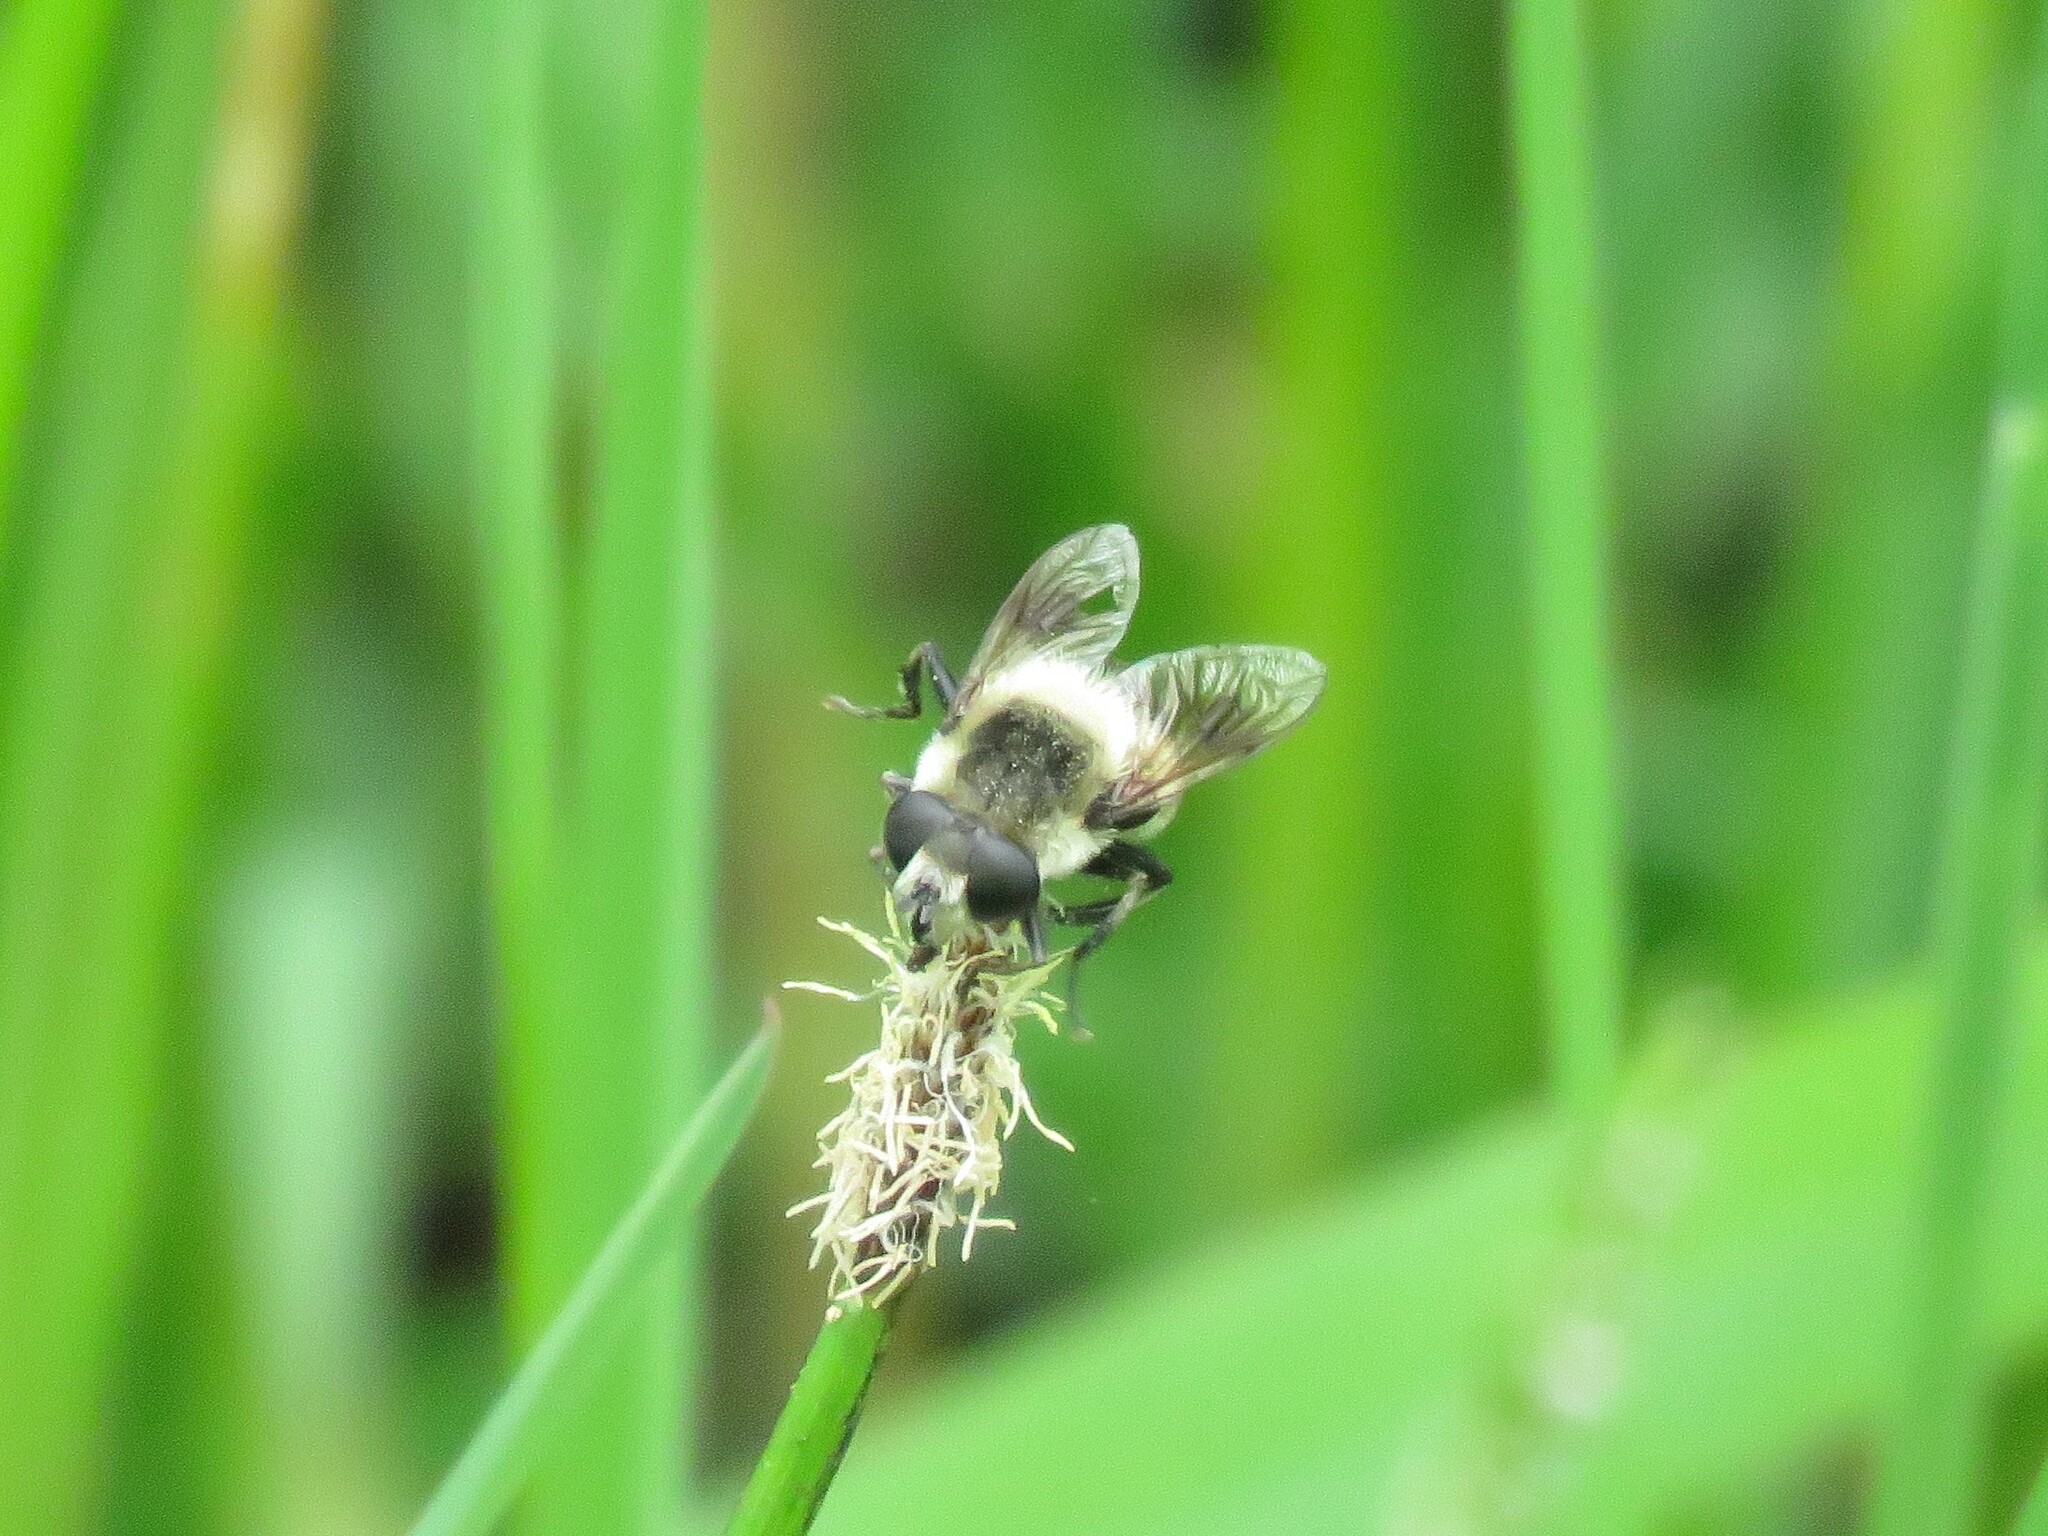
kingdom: Animalia
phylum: Arthropoda
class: Insecta
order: Diptera
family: Syrphidae
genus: Eristalis
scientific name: Eristalis anthophorina
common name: Orange-spotted drone fly
